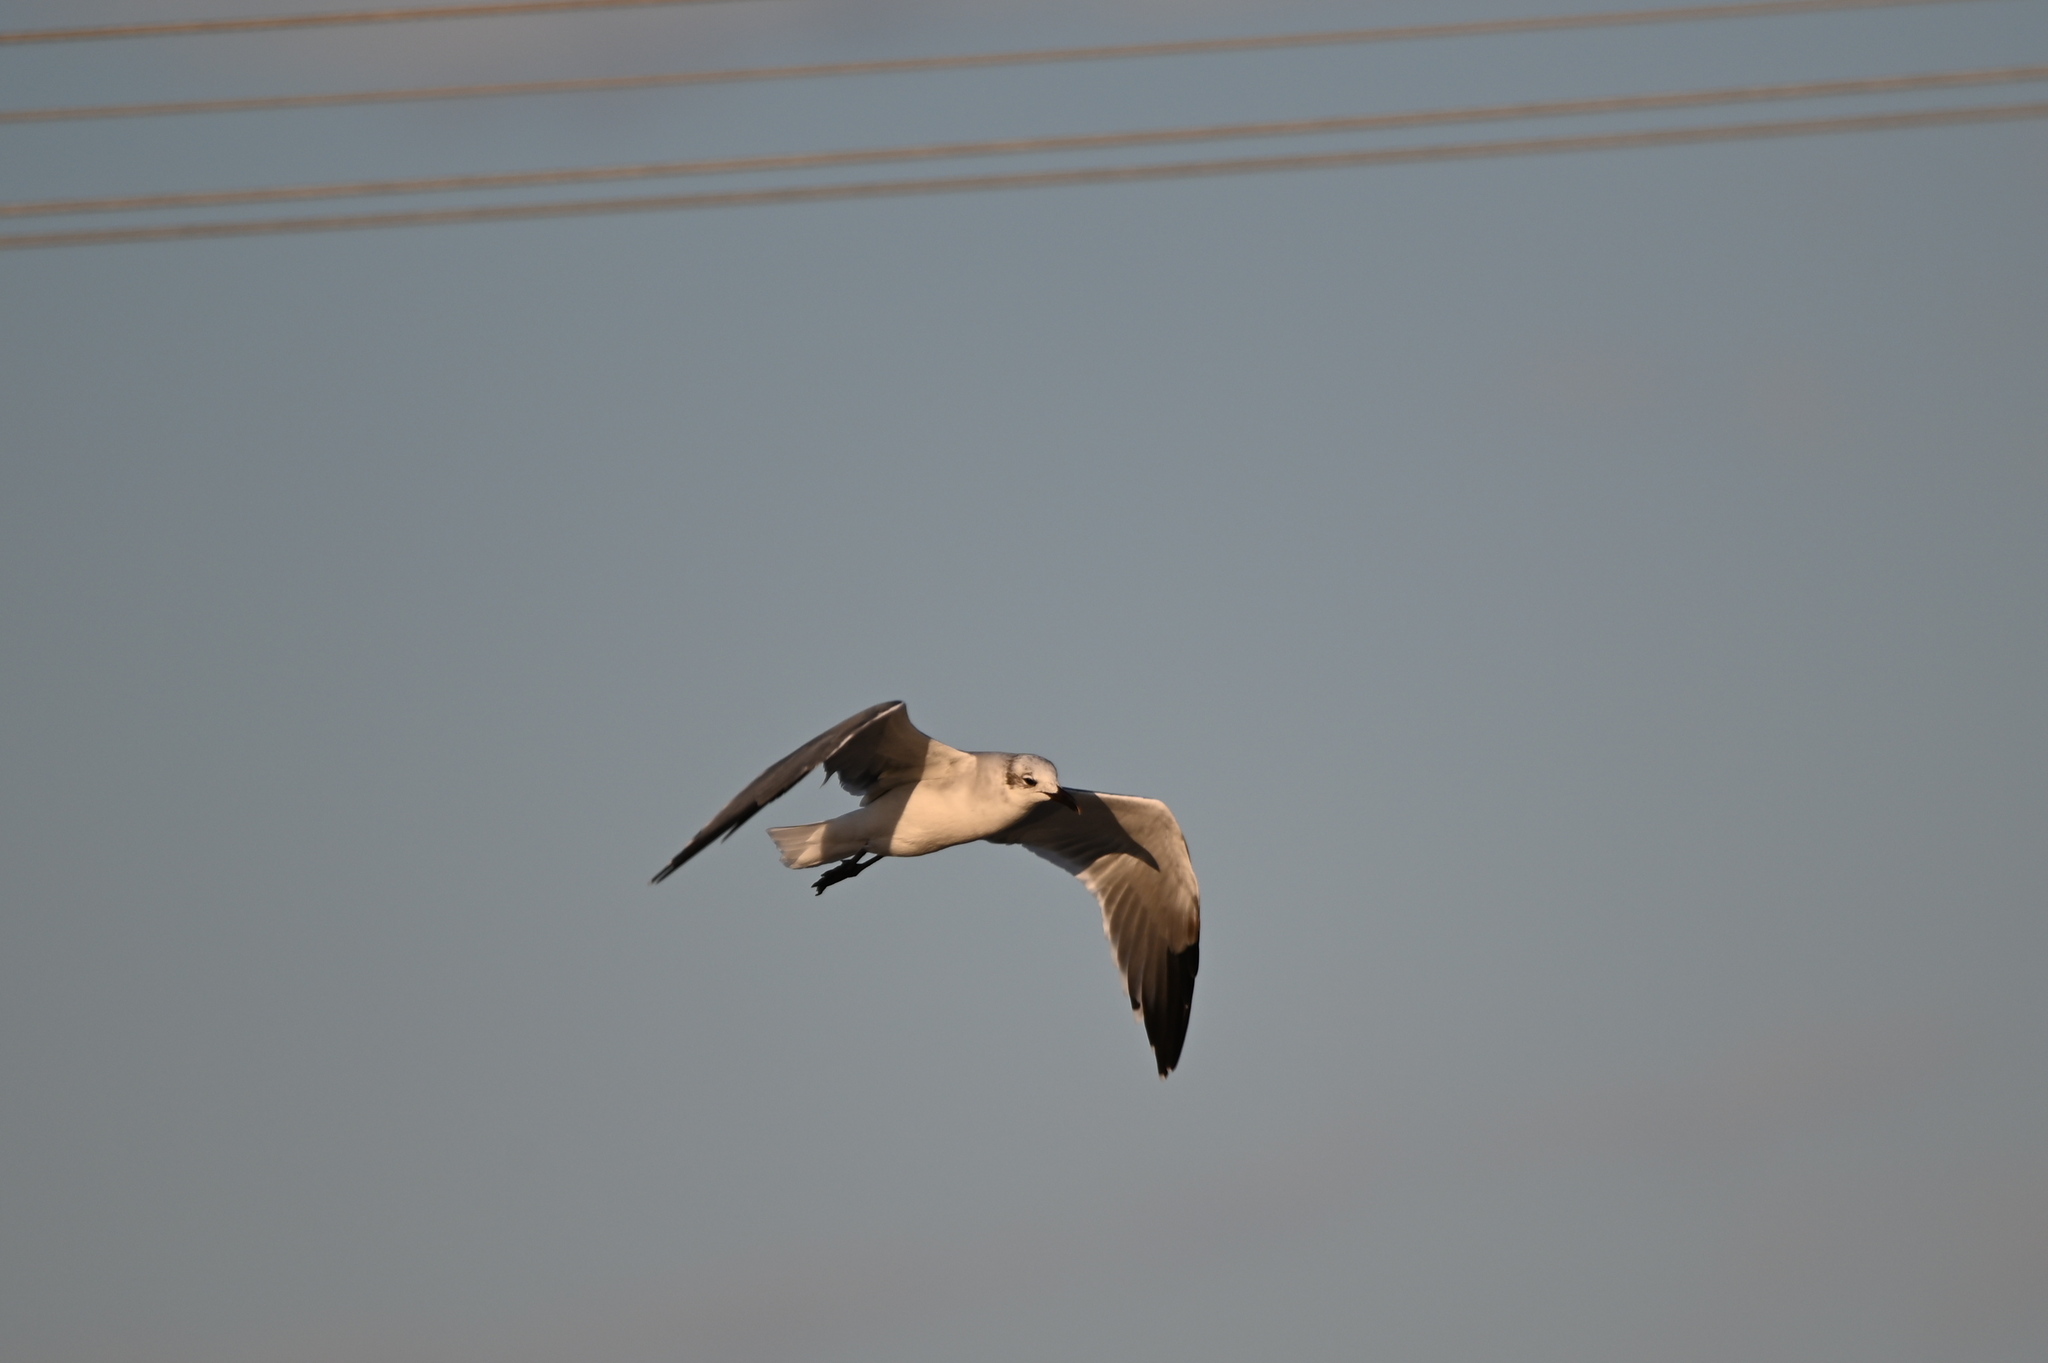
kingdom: Animalia
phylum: Chordata
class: Aves
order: Charadriiformes
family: Laridae
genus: Leucophaeus
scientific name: Leucophaeus atricilla
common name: Laughing gull
